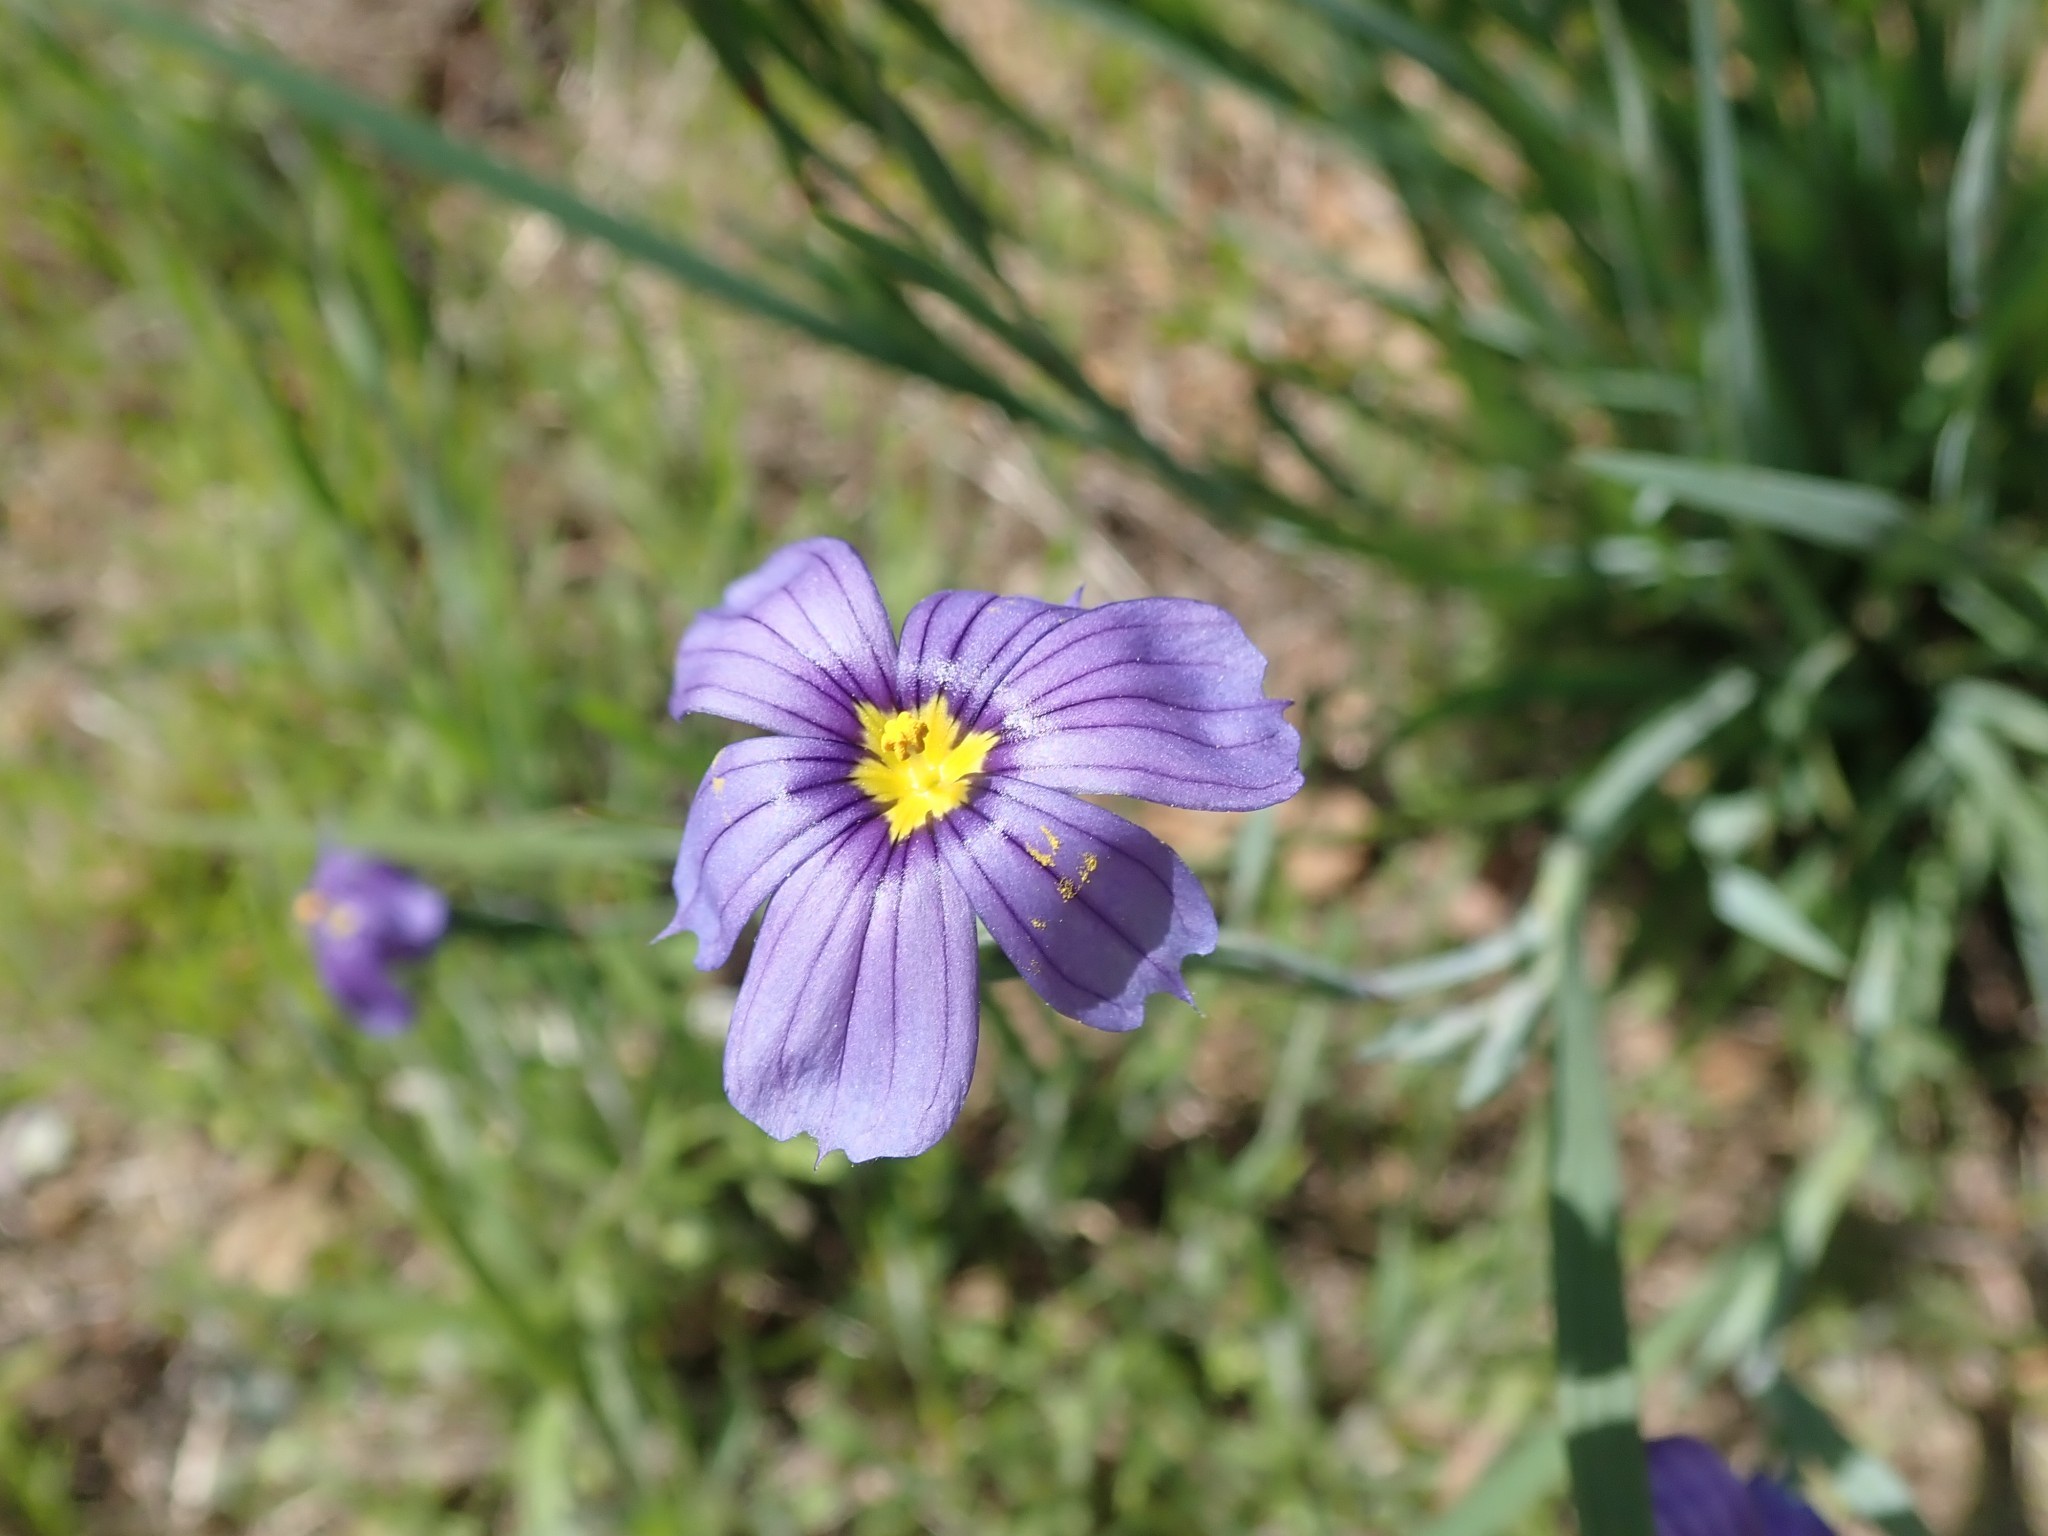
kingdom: Plantae
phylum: Tracheophyta
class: Liliopsida
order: Asparagales
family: Iridaceae
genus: Sisyrinchium
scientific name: Sisyrinchium bellum
